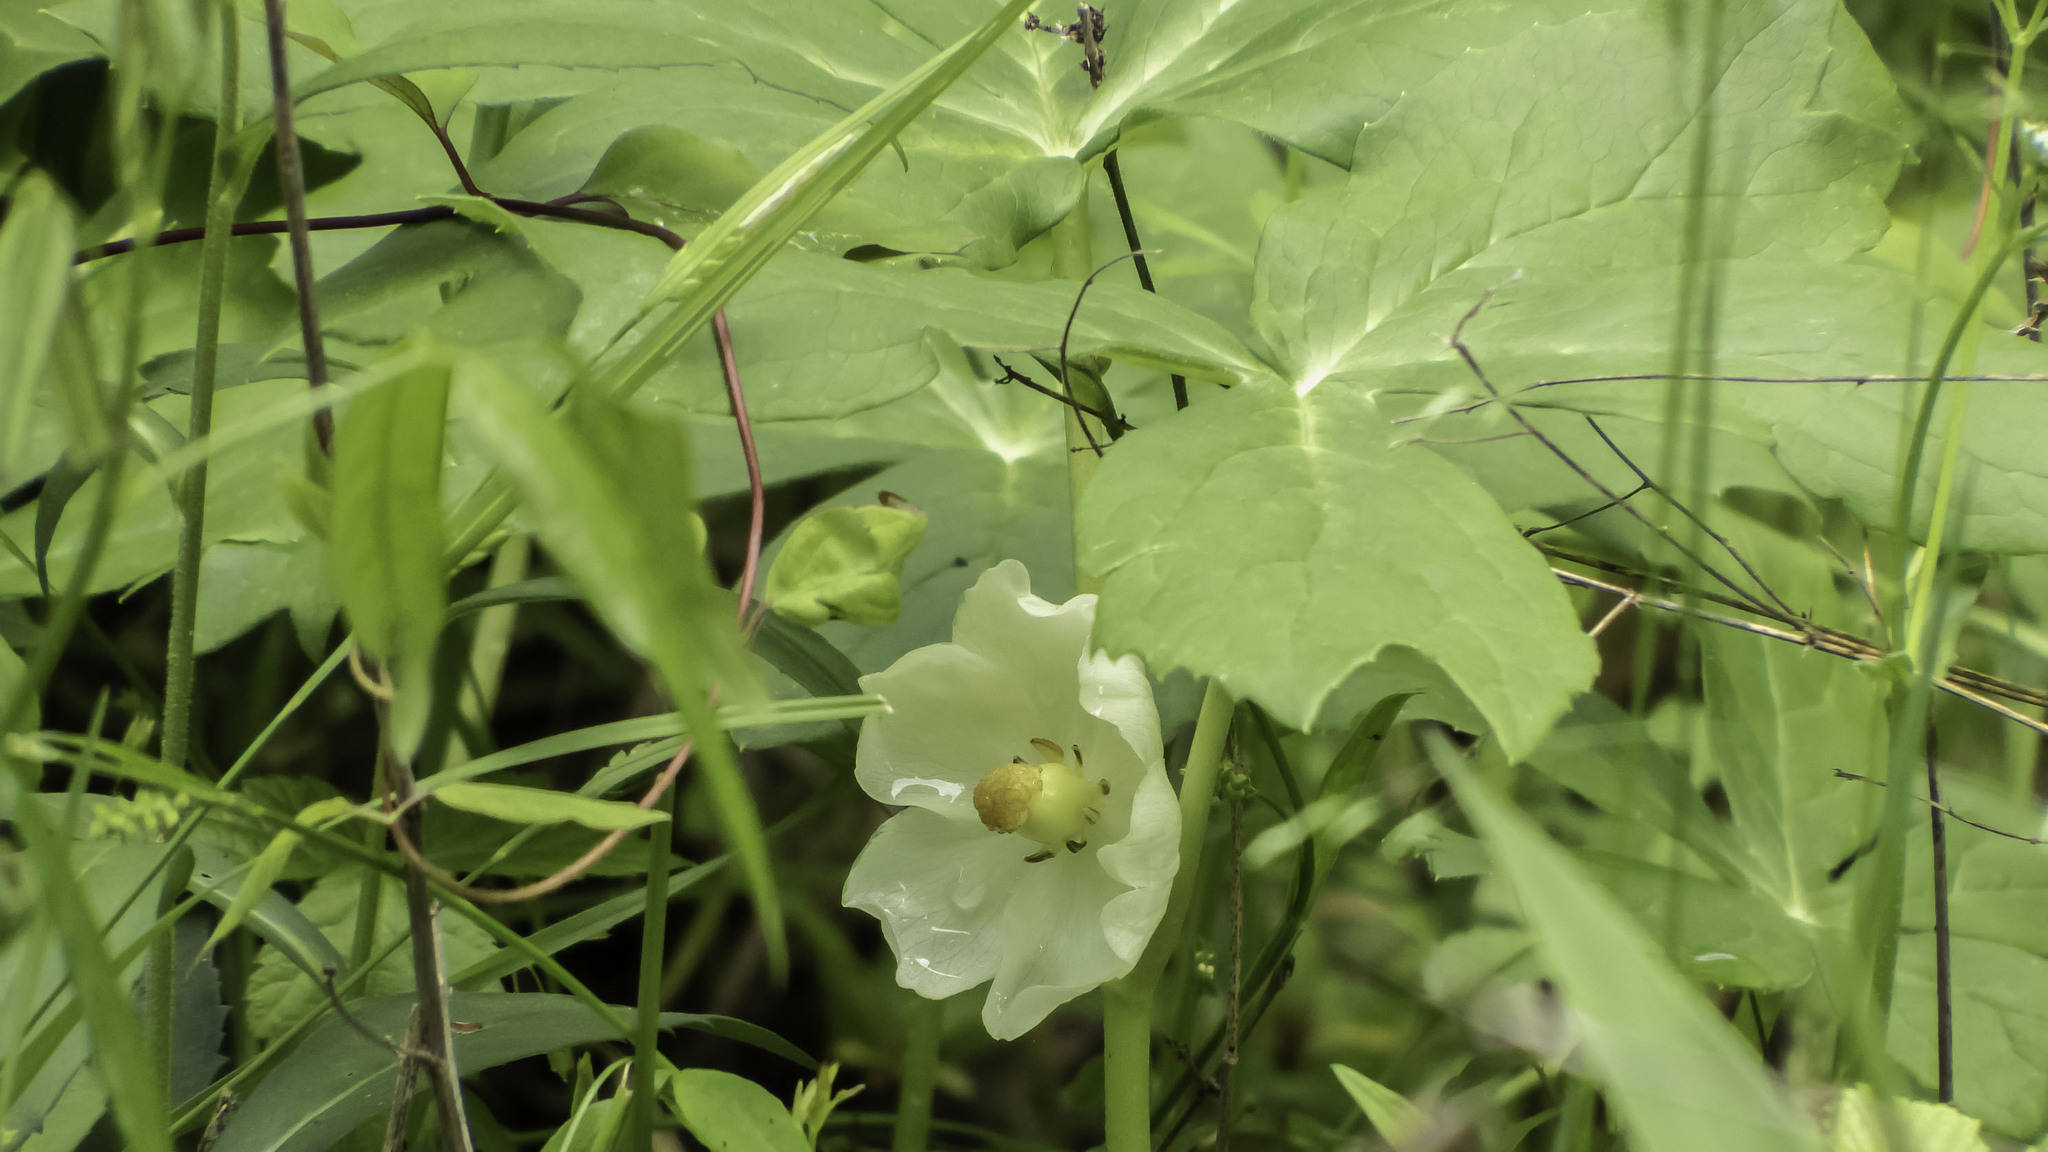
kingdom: Plantae
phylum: Tracheophyta
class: Magnoliopsida
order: Ranunculales
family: Berberidaceae
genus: Podophyllum
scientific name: Podophyllum peltatum
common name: Wild mandrake
